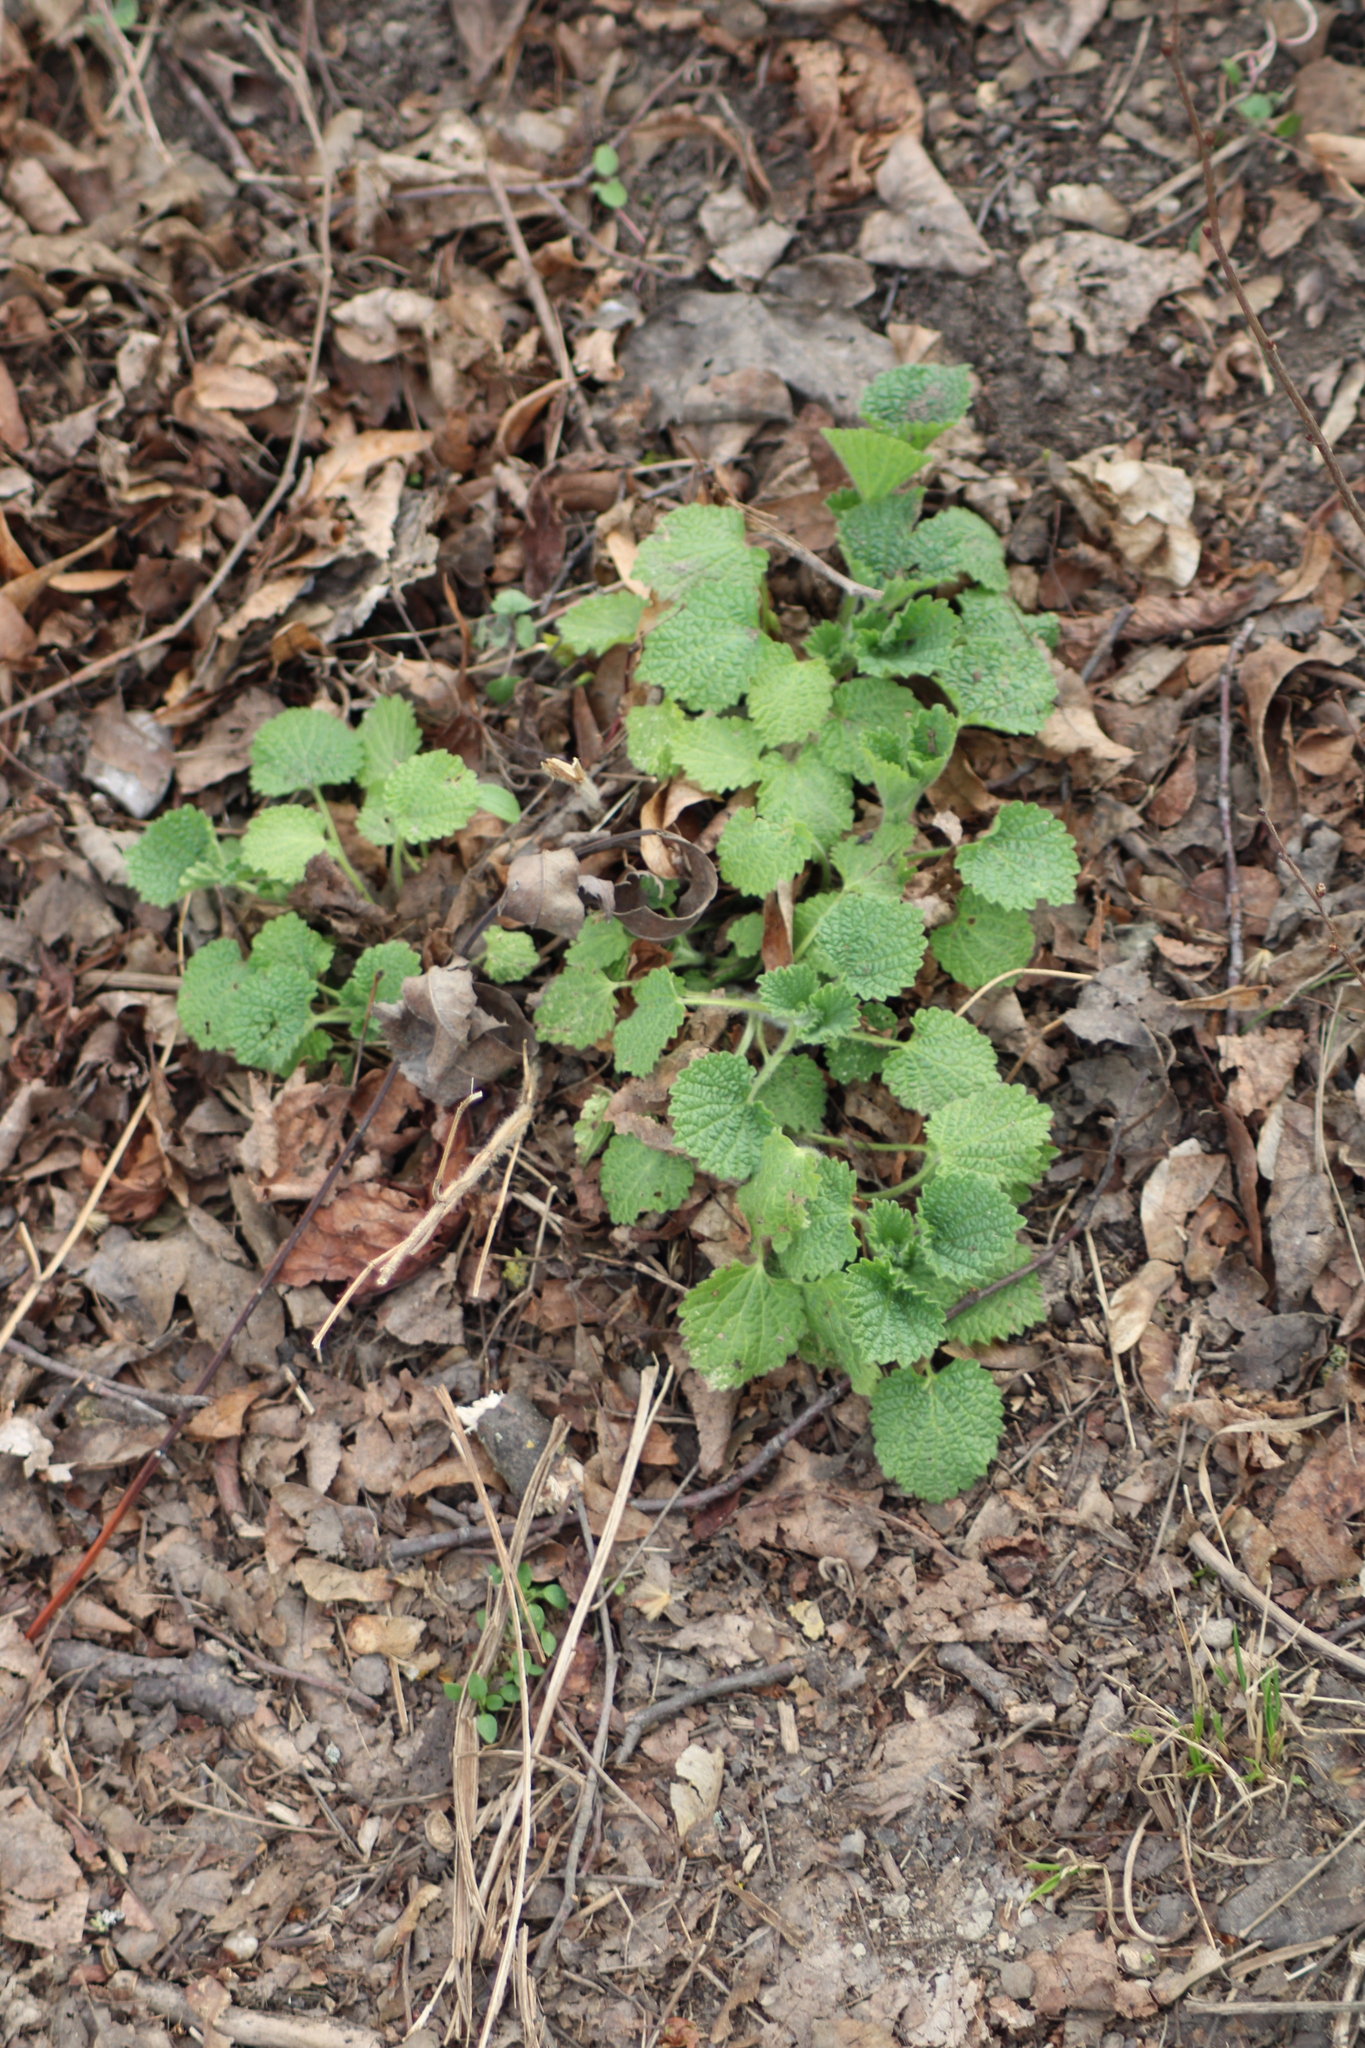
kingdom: Plantae
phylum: Tracheophyta
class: Magnoliopsida
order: Lamiales
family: Lamiaceae
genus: Ballota
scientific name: Ballota nigra
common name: Black horehound
